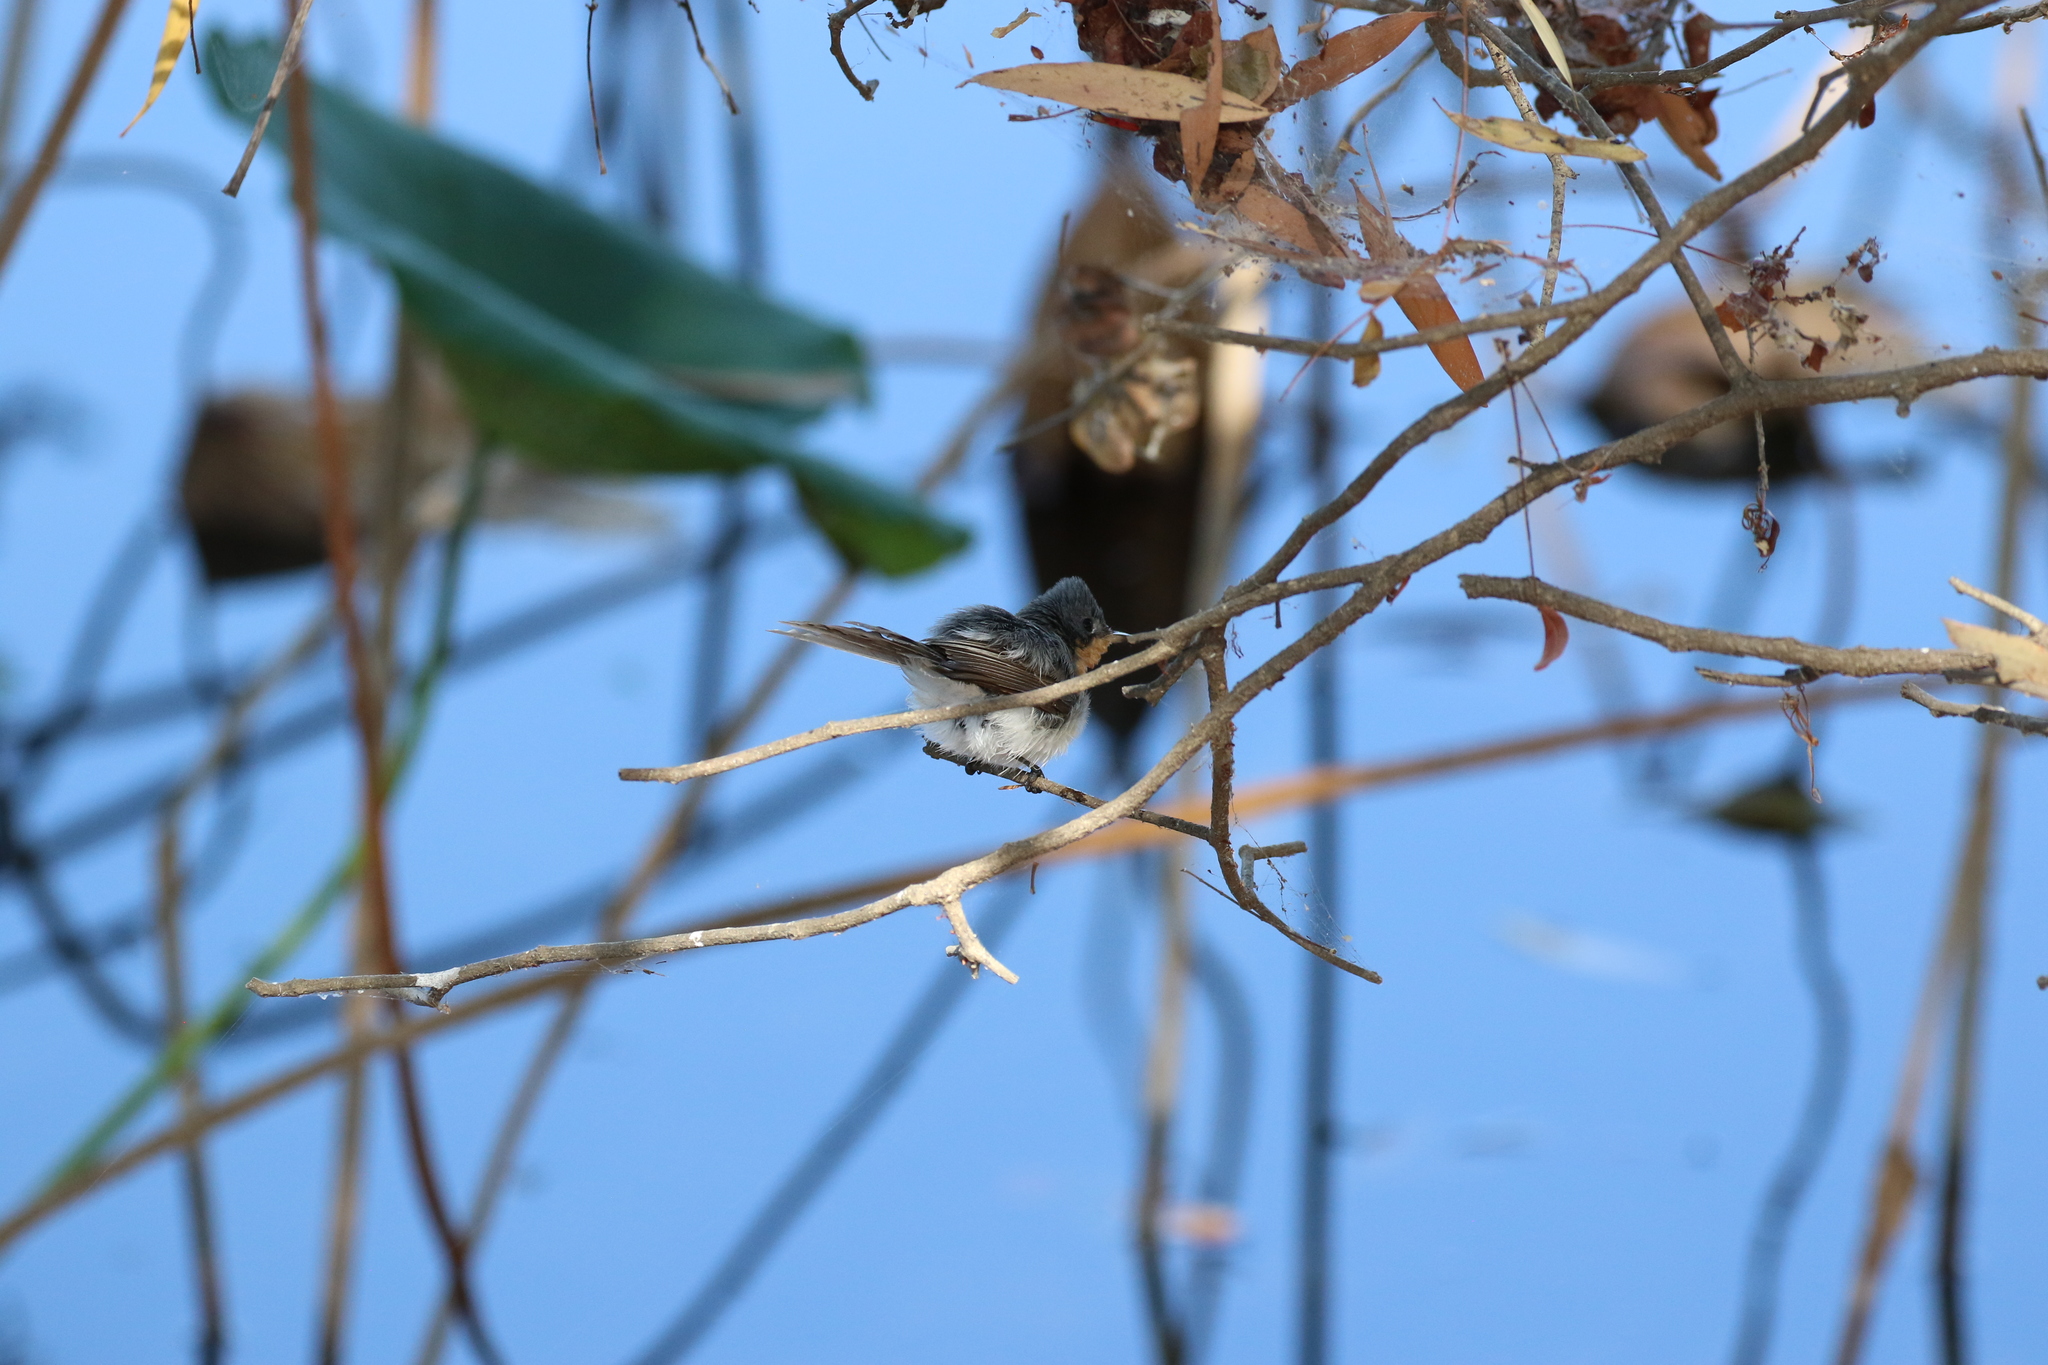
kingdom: Animalia
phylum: Chordata
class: Aves
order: Passeriformes
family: Monarchidae
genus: Myiagra
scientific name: Myiagra ruficollis
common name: Broad-billed flycatcher
